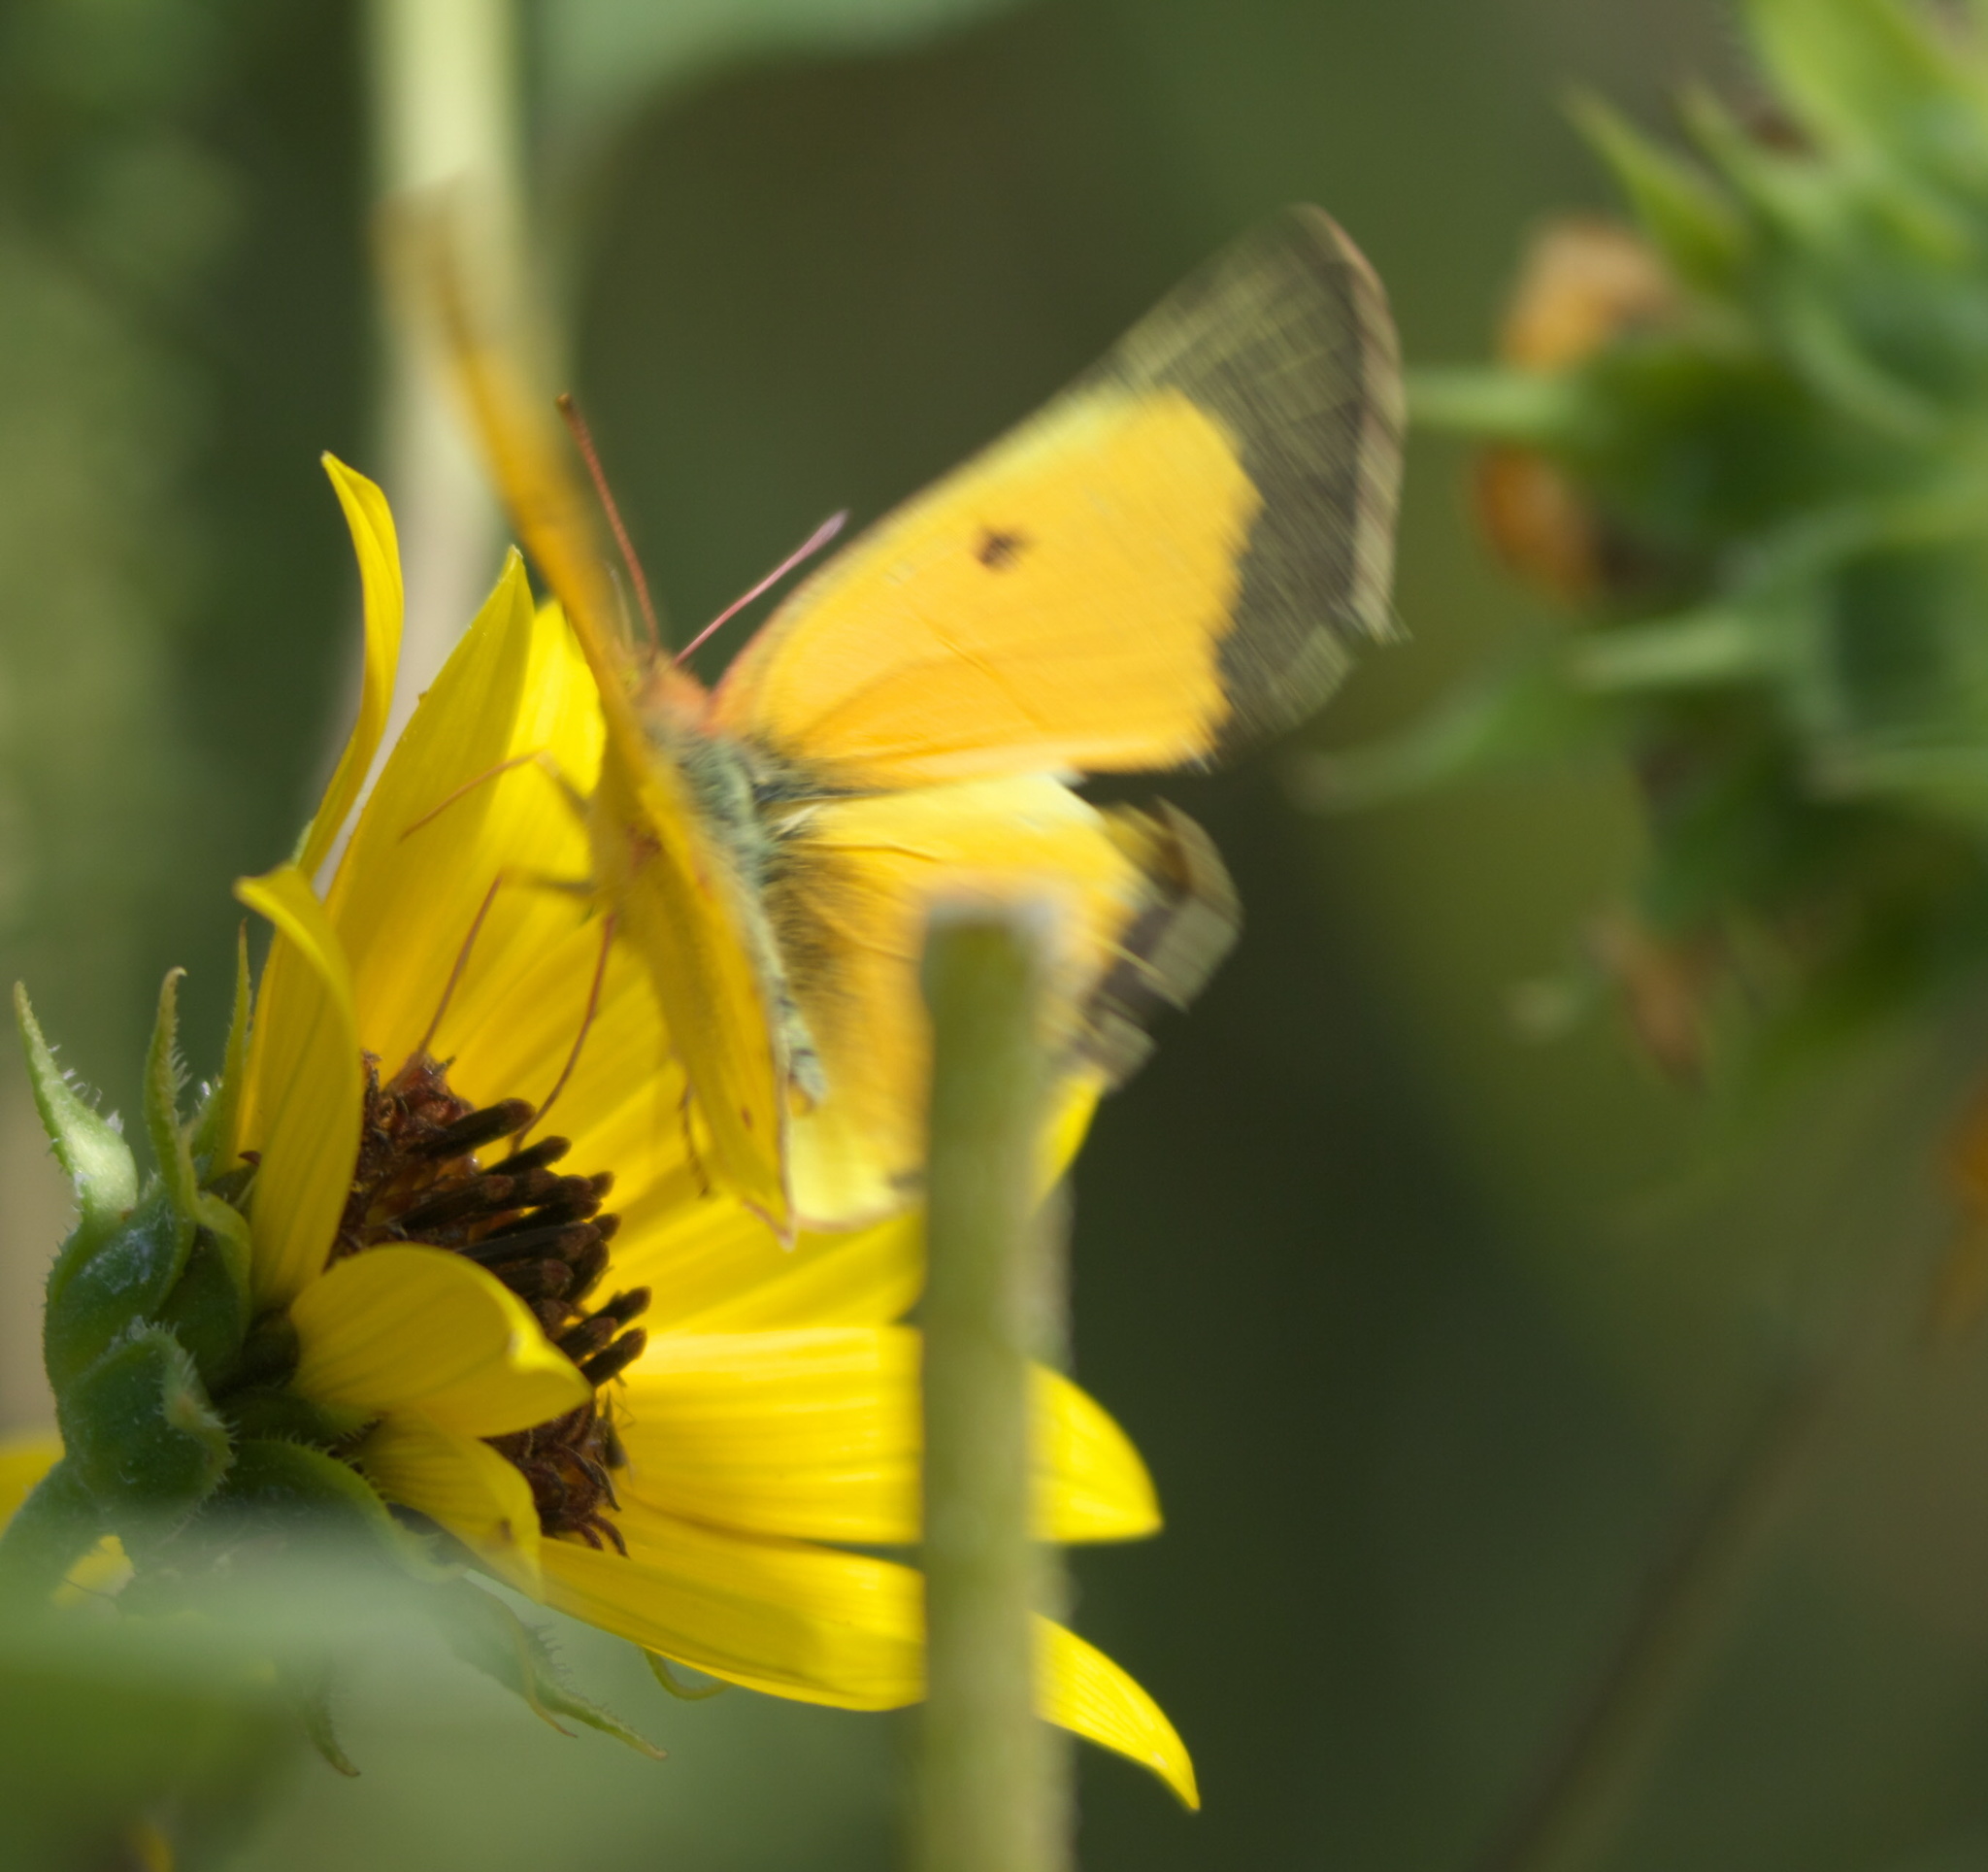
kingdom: Animalia
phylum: Arthropoda
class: Insecta
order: Lepidoptera
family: Pieridae
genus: Colias
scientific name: Colias eurytheme
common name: Alfalfa butterfly
